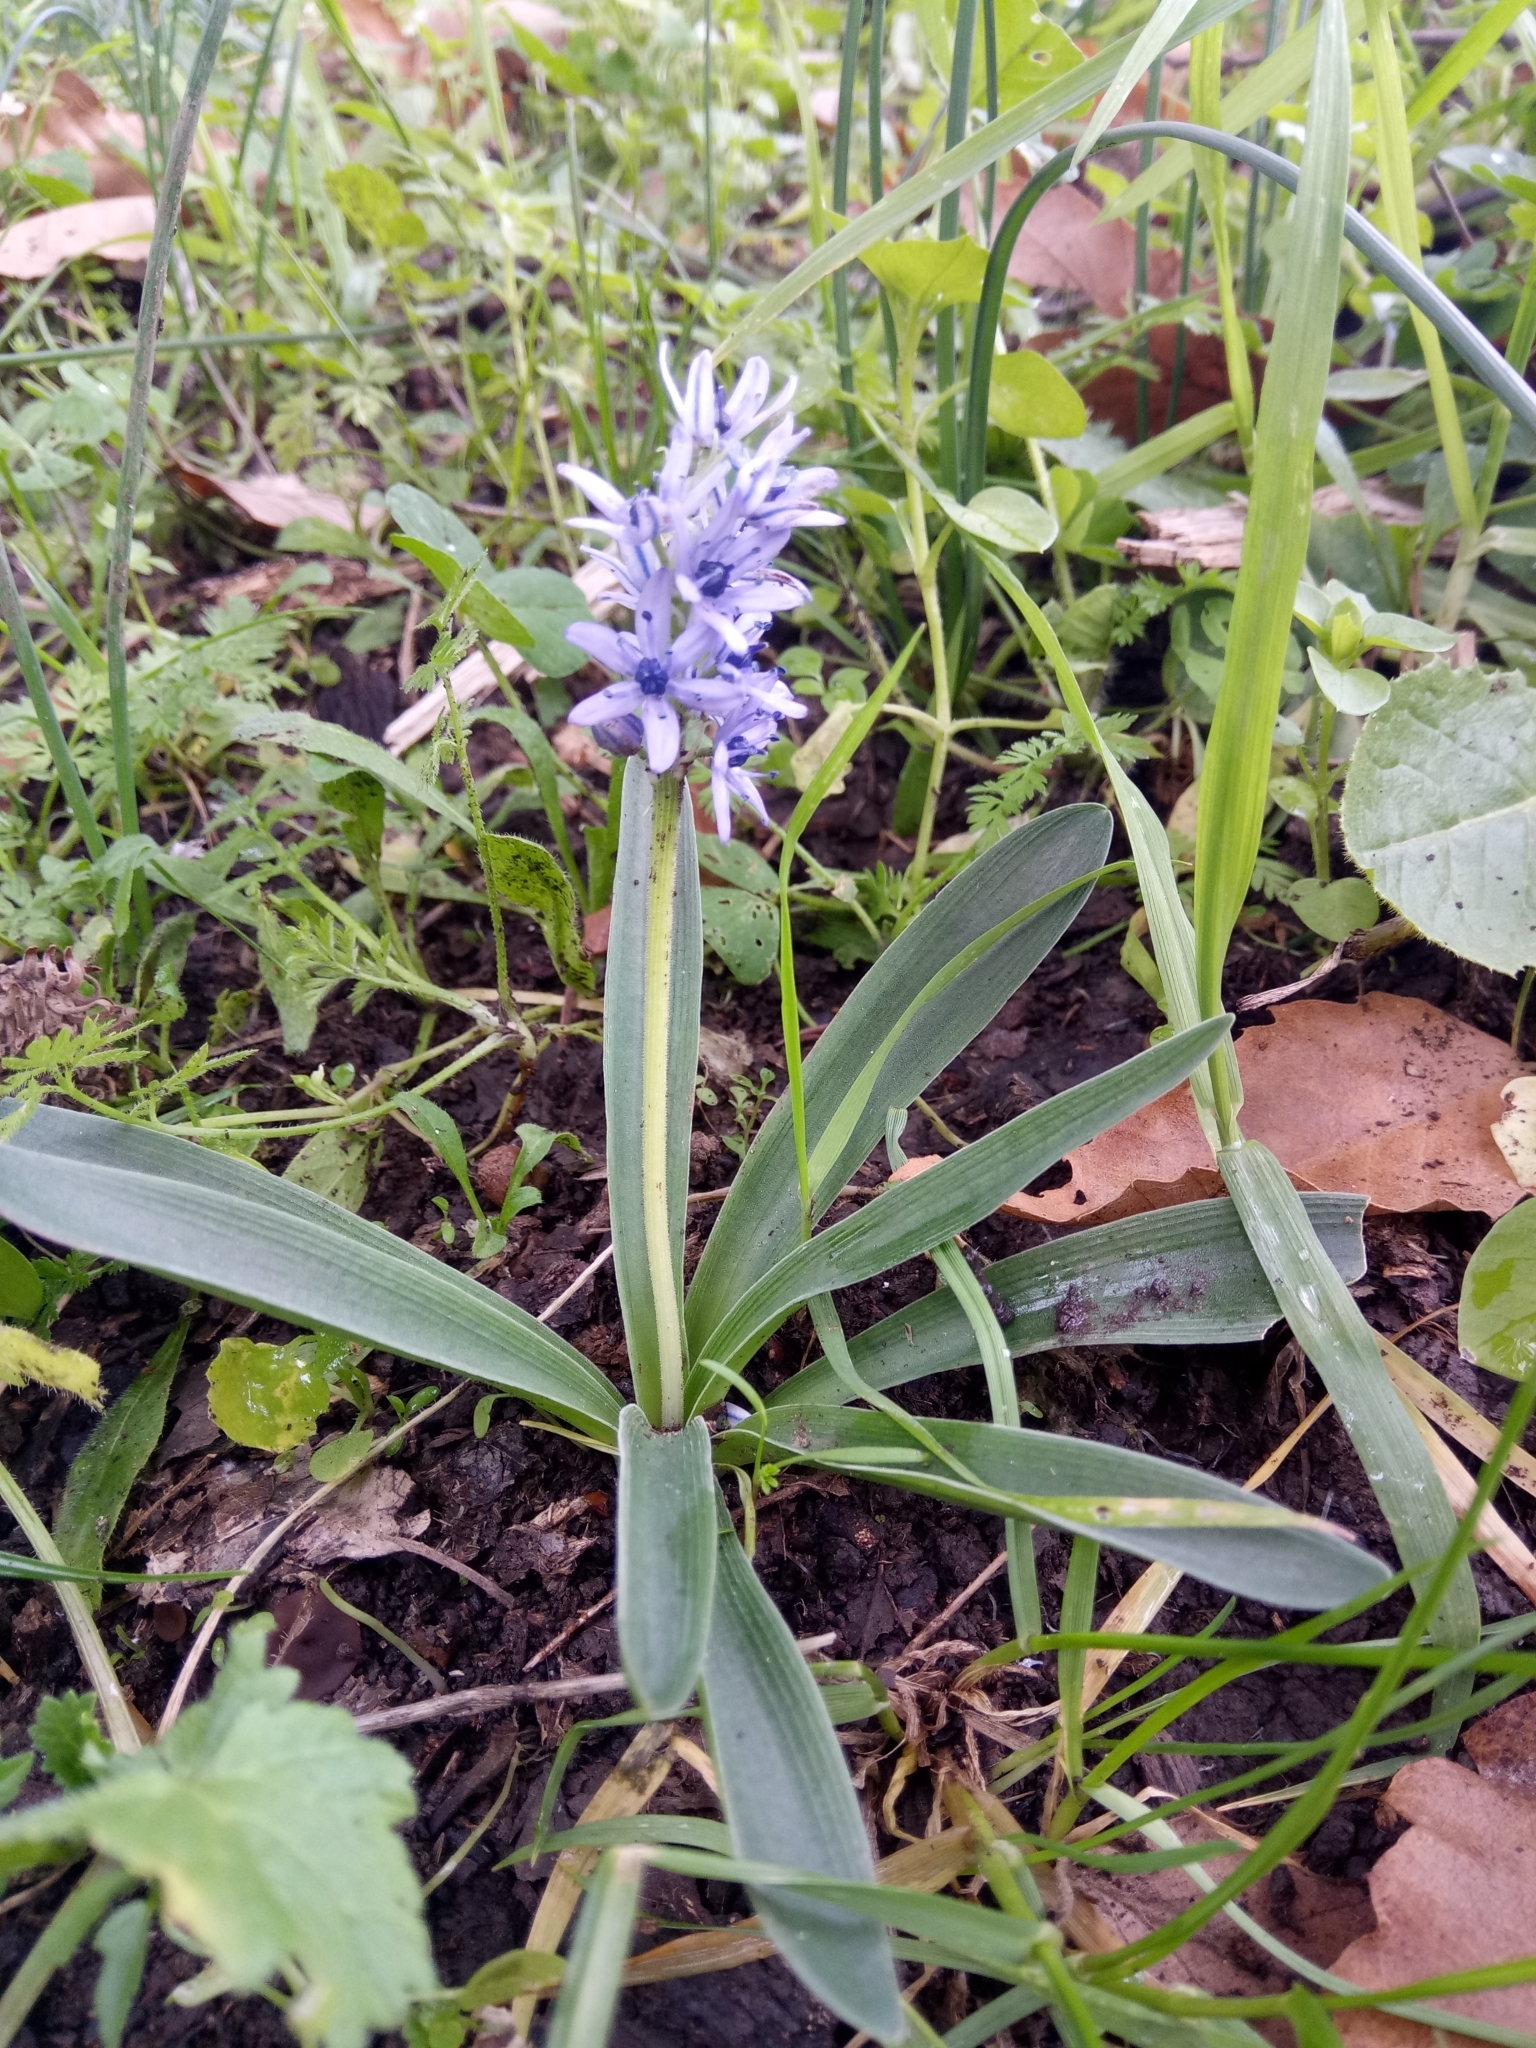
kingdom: Plantae
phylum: Tracheophyta
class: Liliopsida
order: Asparagales
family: Asparagaceae
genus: Hyacinthoides
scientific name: Hyacinthoides lingulata
